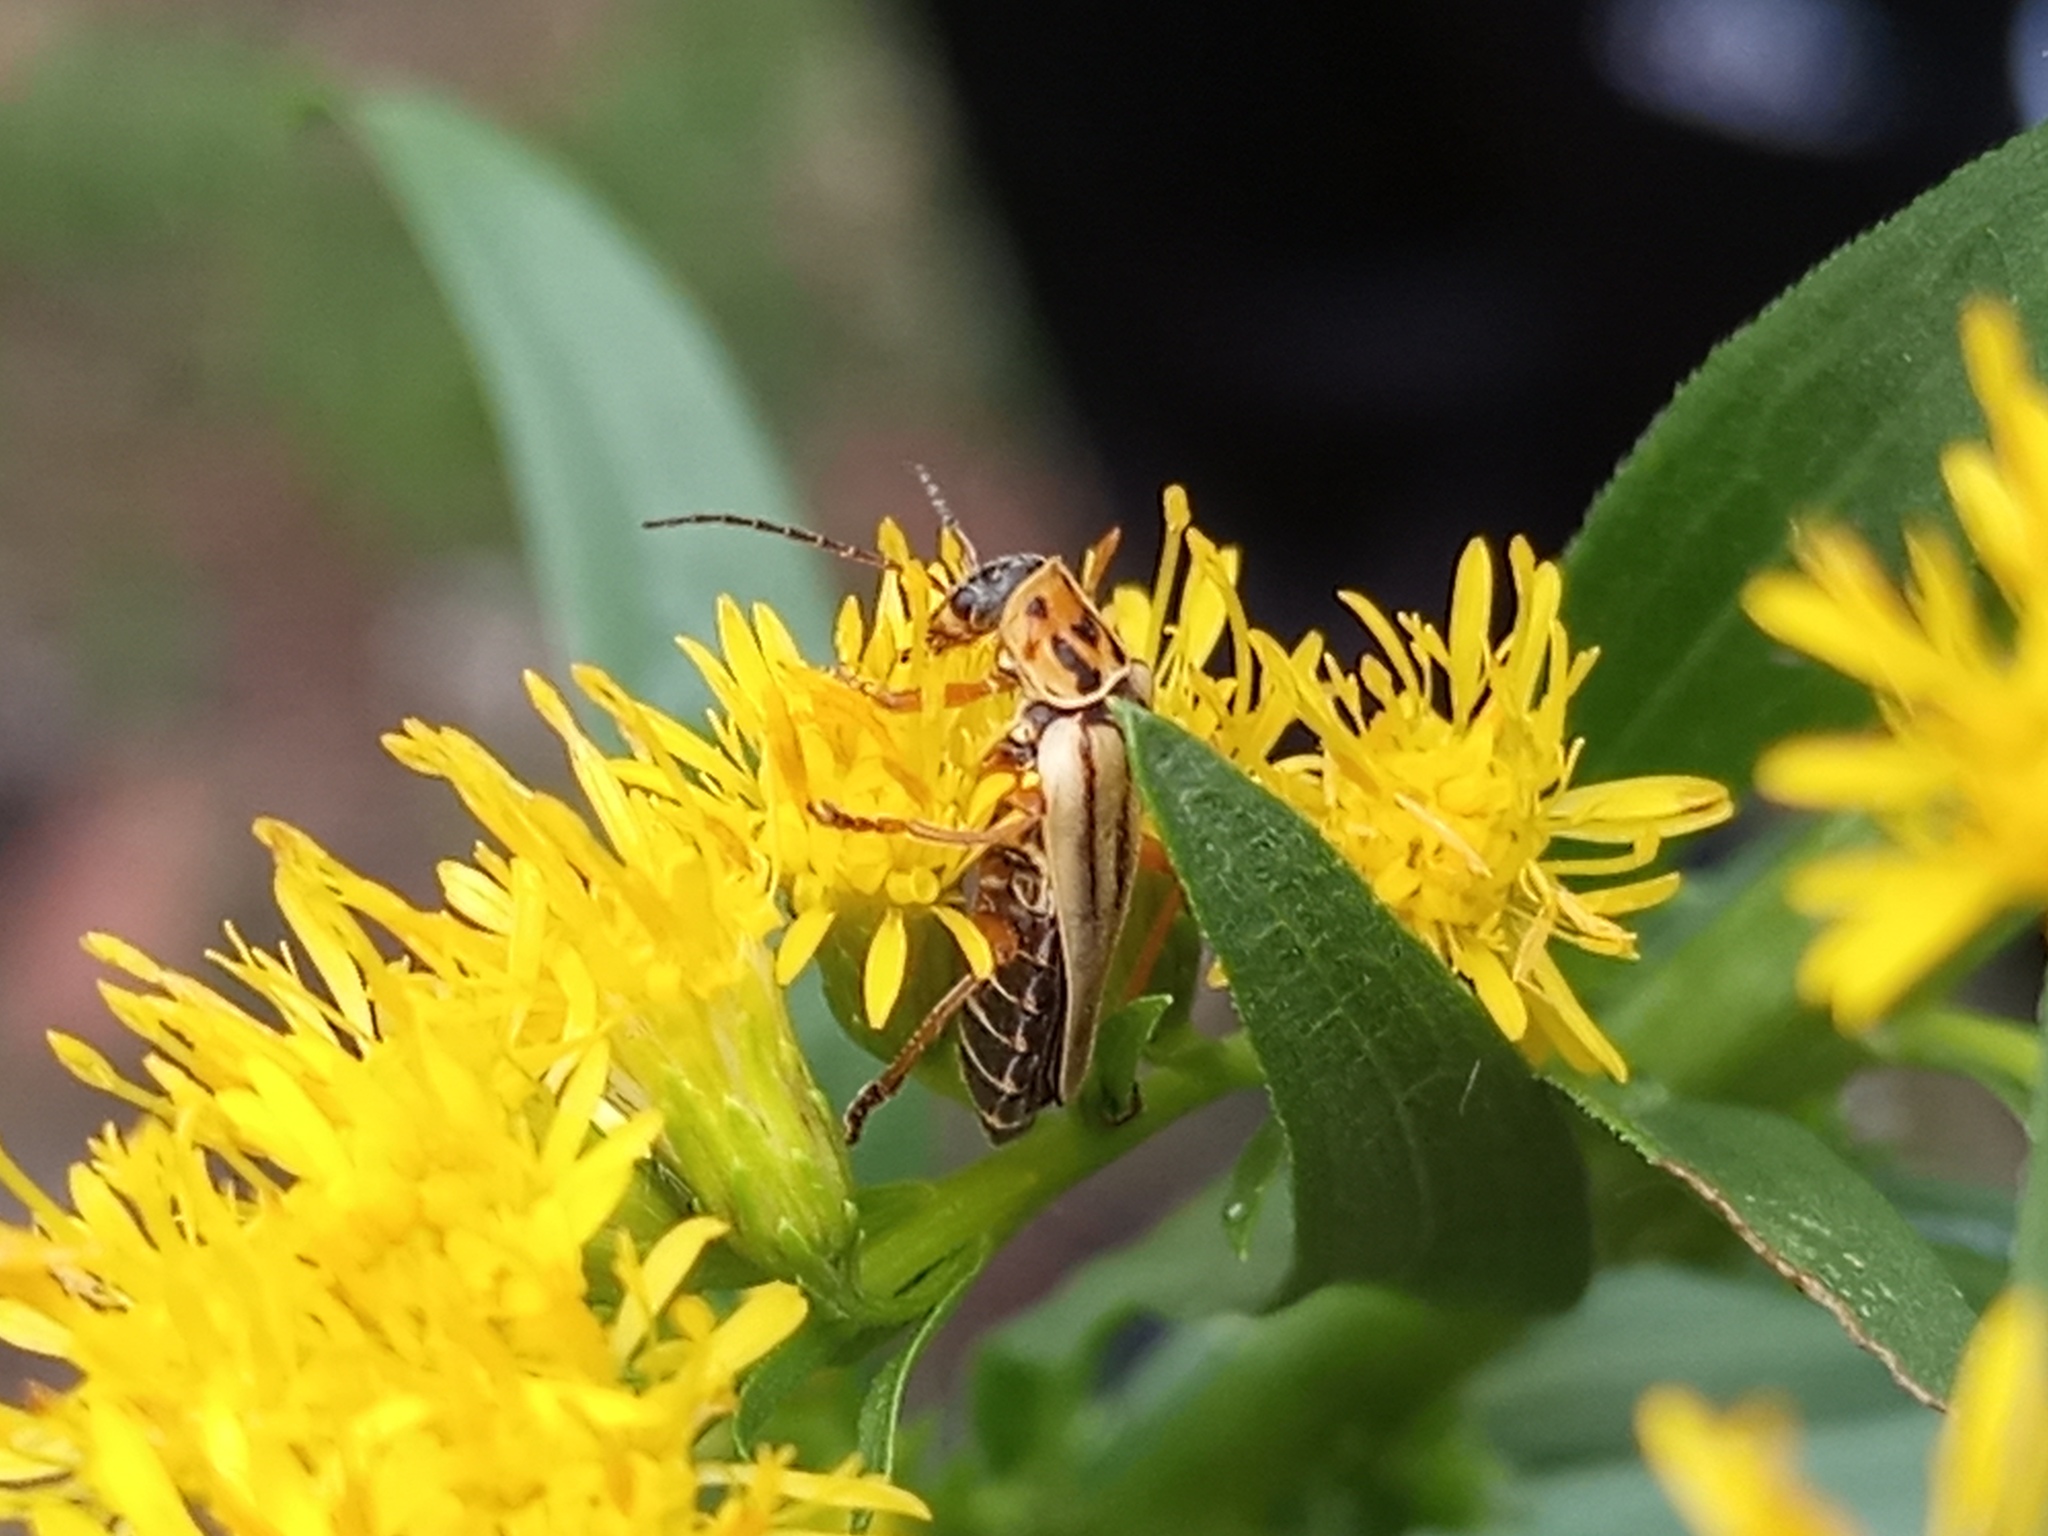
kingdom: Animalia
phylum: Arthropoda
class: Insecta
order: Coleoptera
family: Cantharidae
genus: Chauliognathus
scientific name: Chauliognathus
